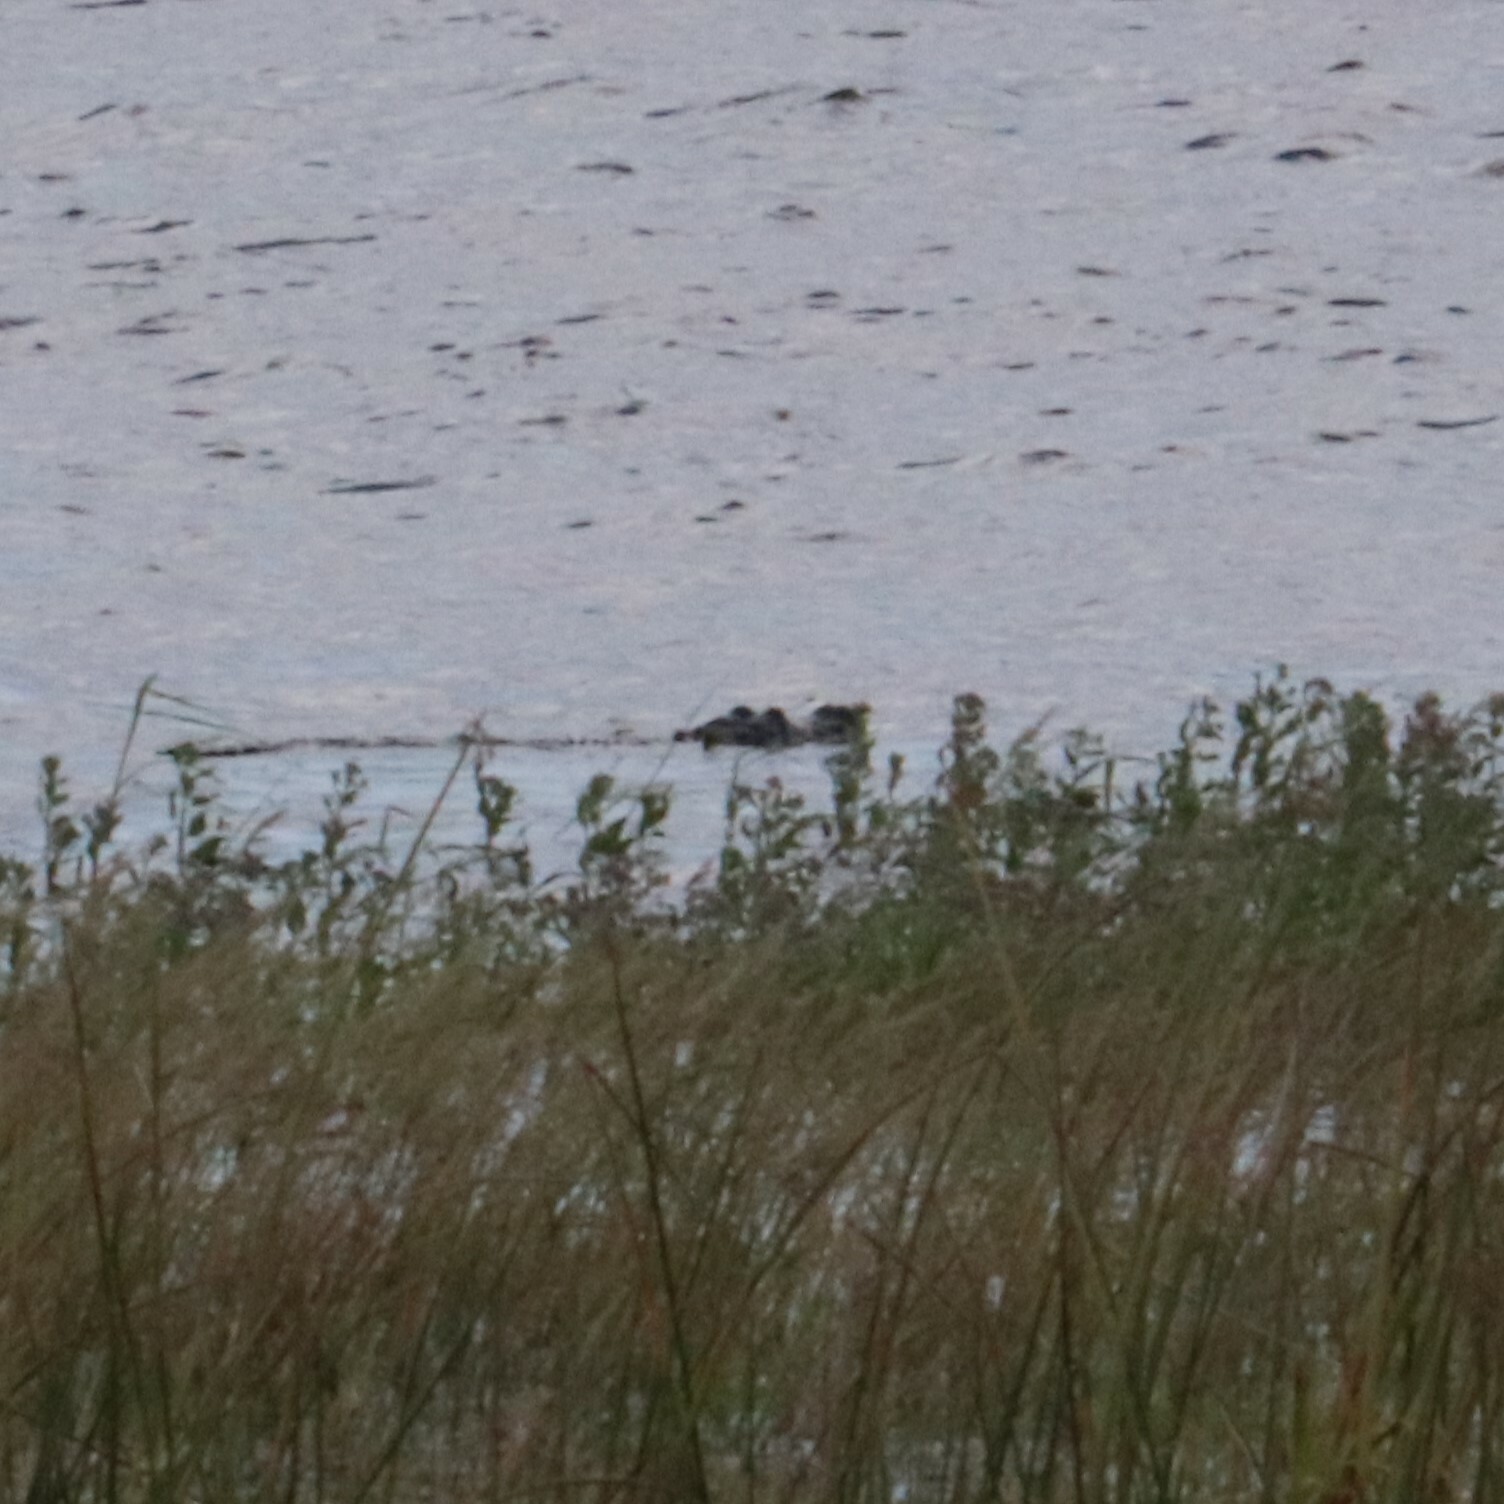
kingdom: Animalia
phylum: Chordata
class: Crocodylia
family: Alligatoridae
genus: Alligator
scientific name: Alligator mississippiensis
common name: American alligator
